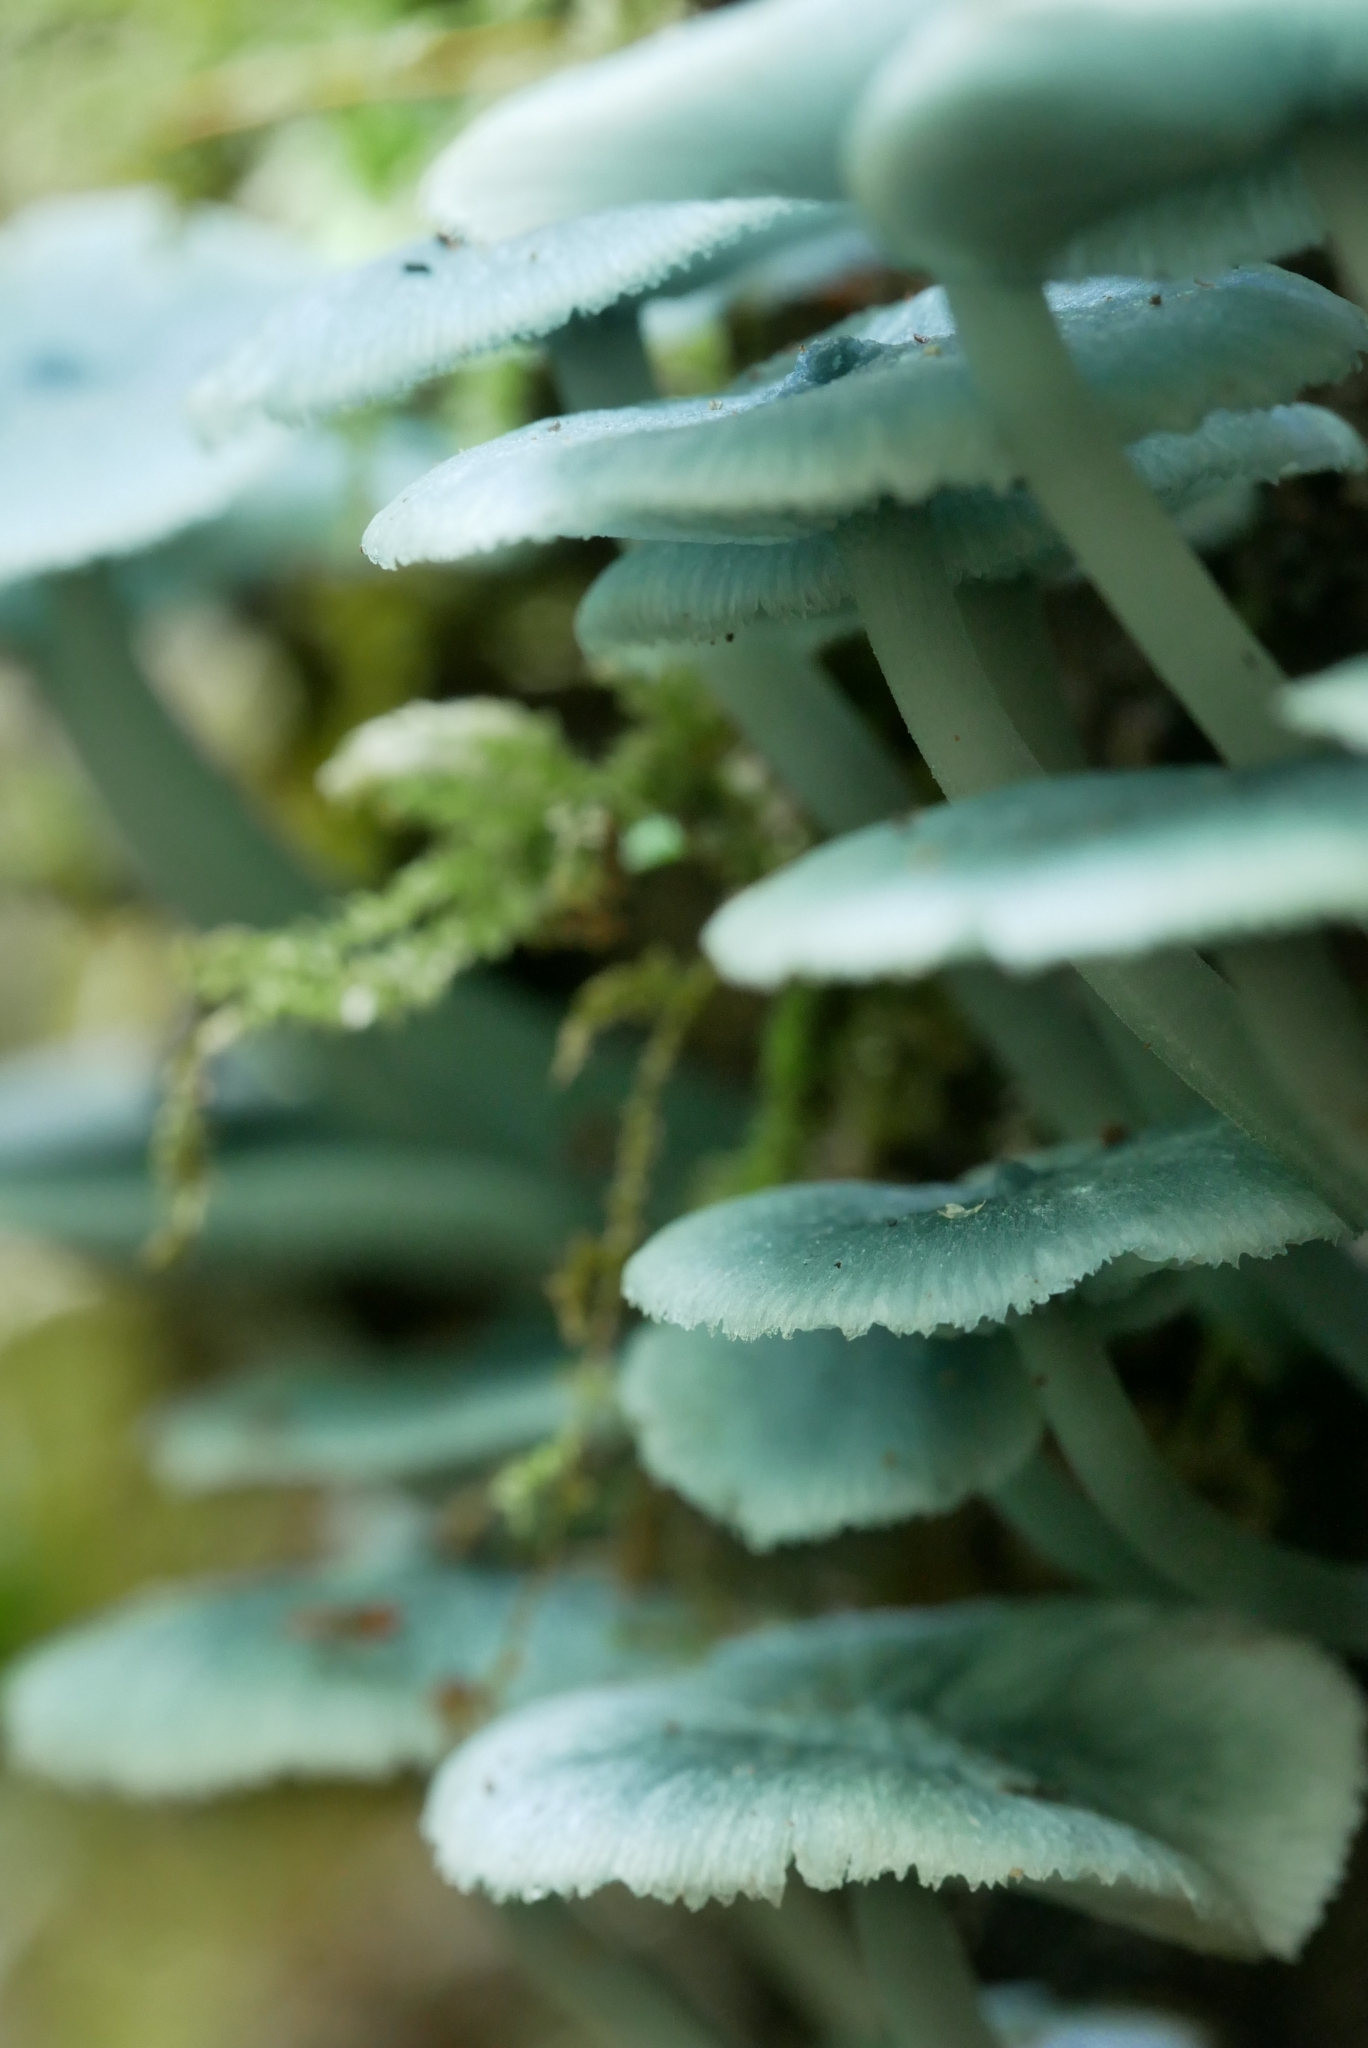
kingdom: Fungi
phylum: Basidiomycota
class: Agaricomycetes
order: Agaricales
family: Marasmiaceae
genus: Clitocybula
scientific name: Clitocybula azurea
